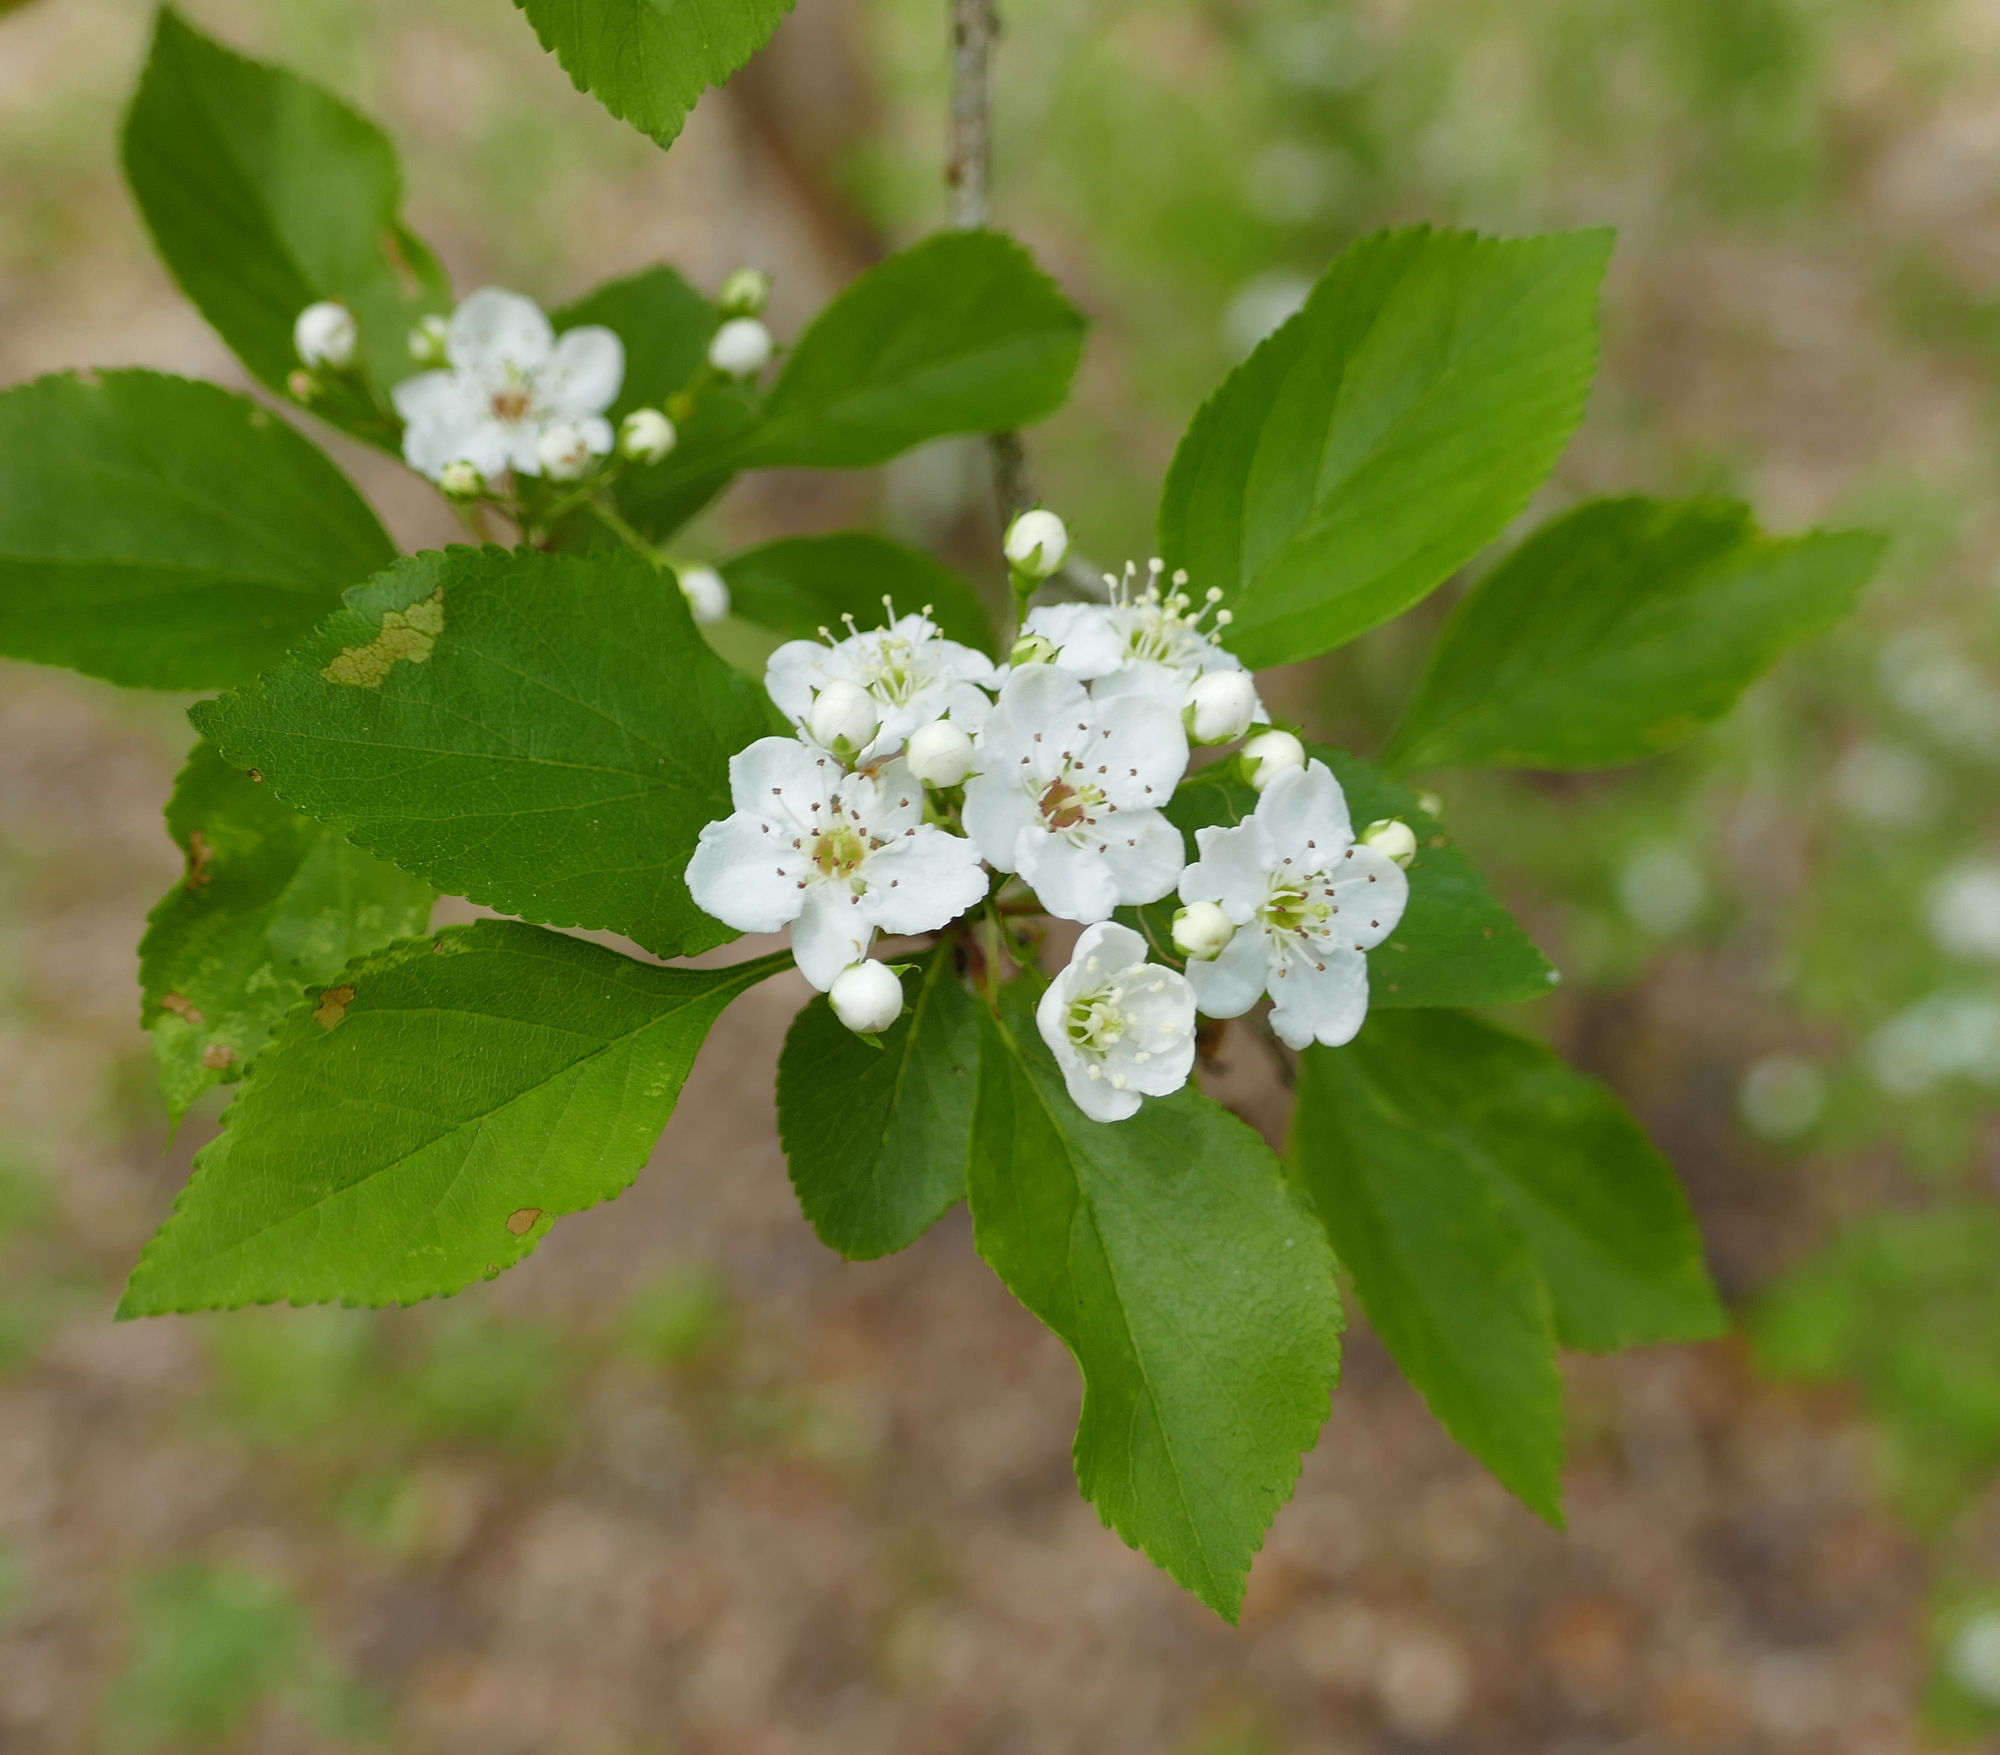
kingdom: Plantae
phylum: Tracheophyta
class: Magnoliopsida
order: Rosales
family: Rosaceae
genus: Crataegus
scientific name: Crataegus viridis
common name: Southernthorn
